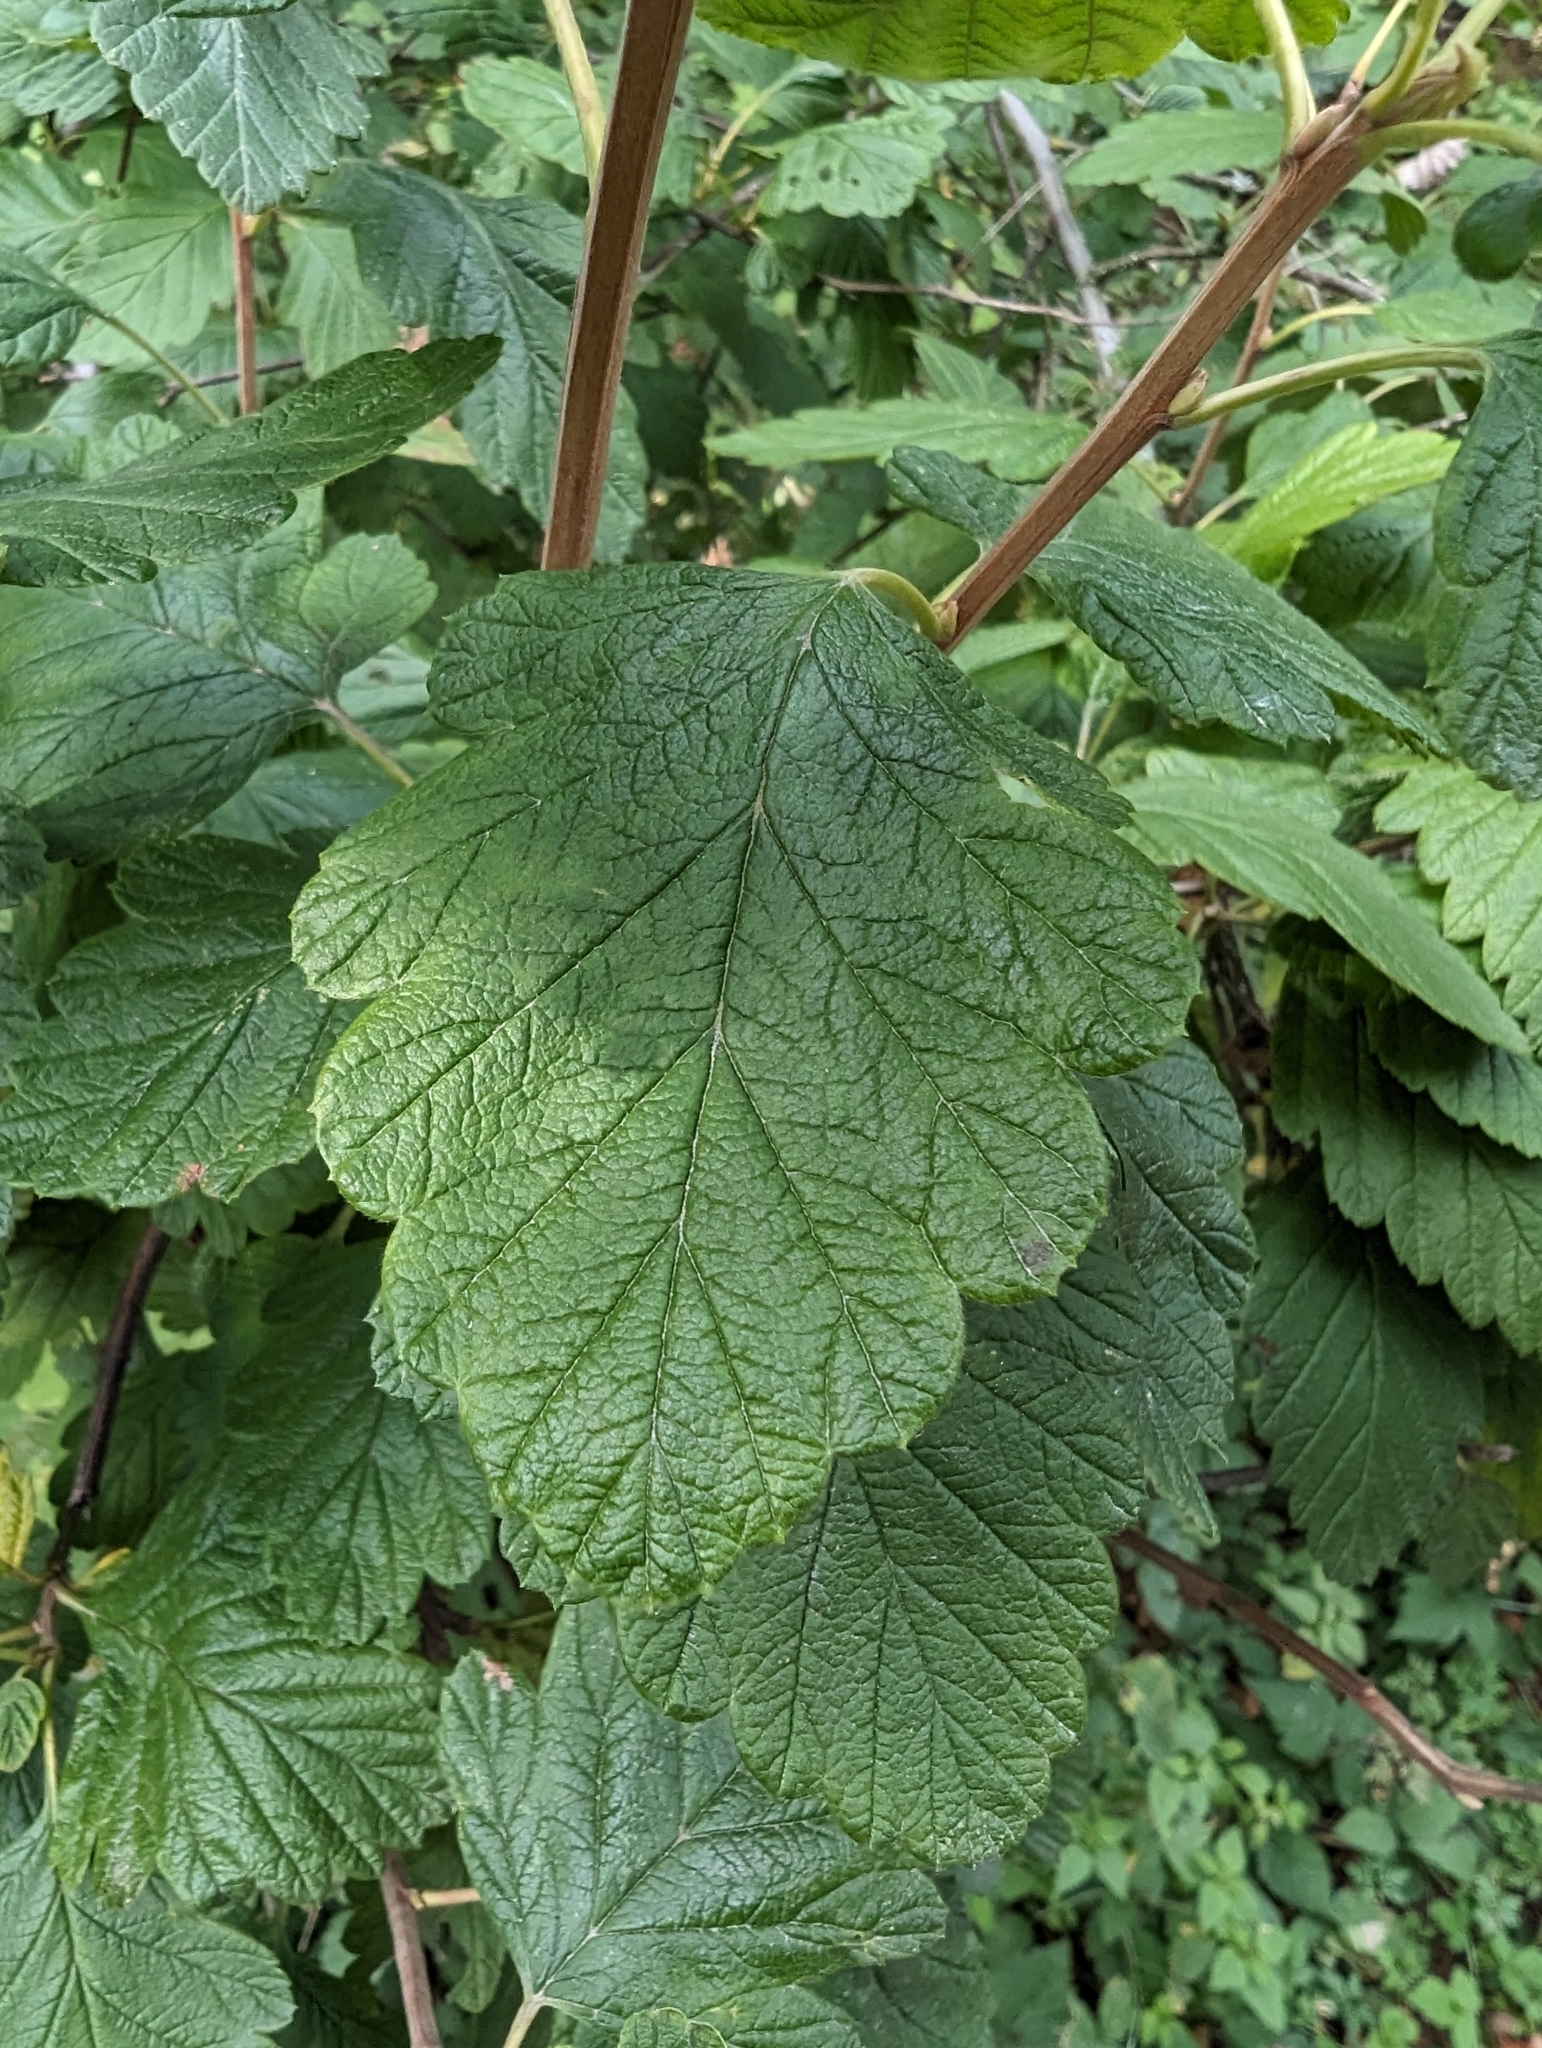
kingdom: Plantae
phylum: Tracheophyta
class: Magnoliopsida
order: Rosales
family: Rosaceae
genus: Holodiscus
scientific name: Holodiscus discolor
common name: Oceanspray
